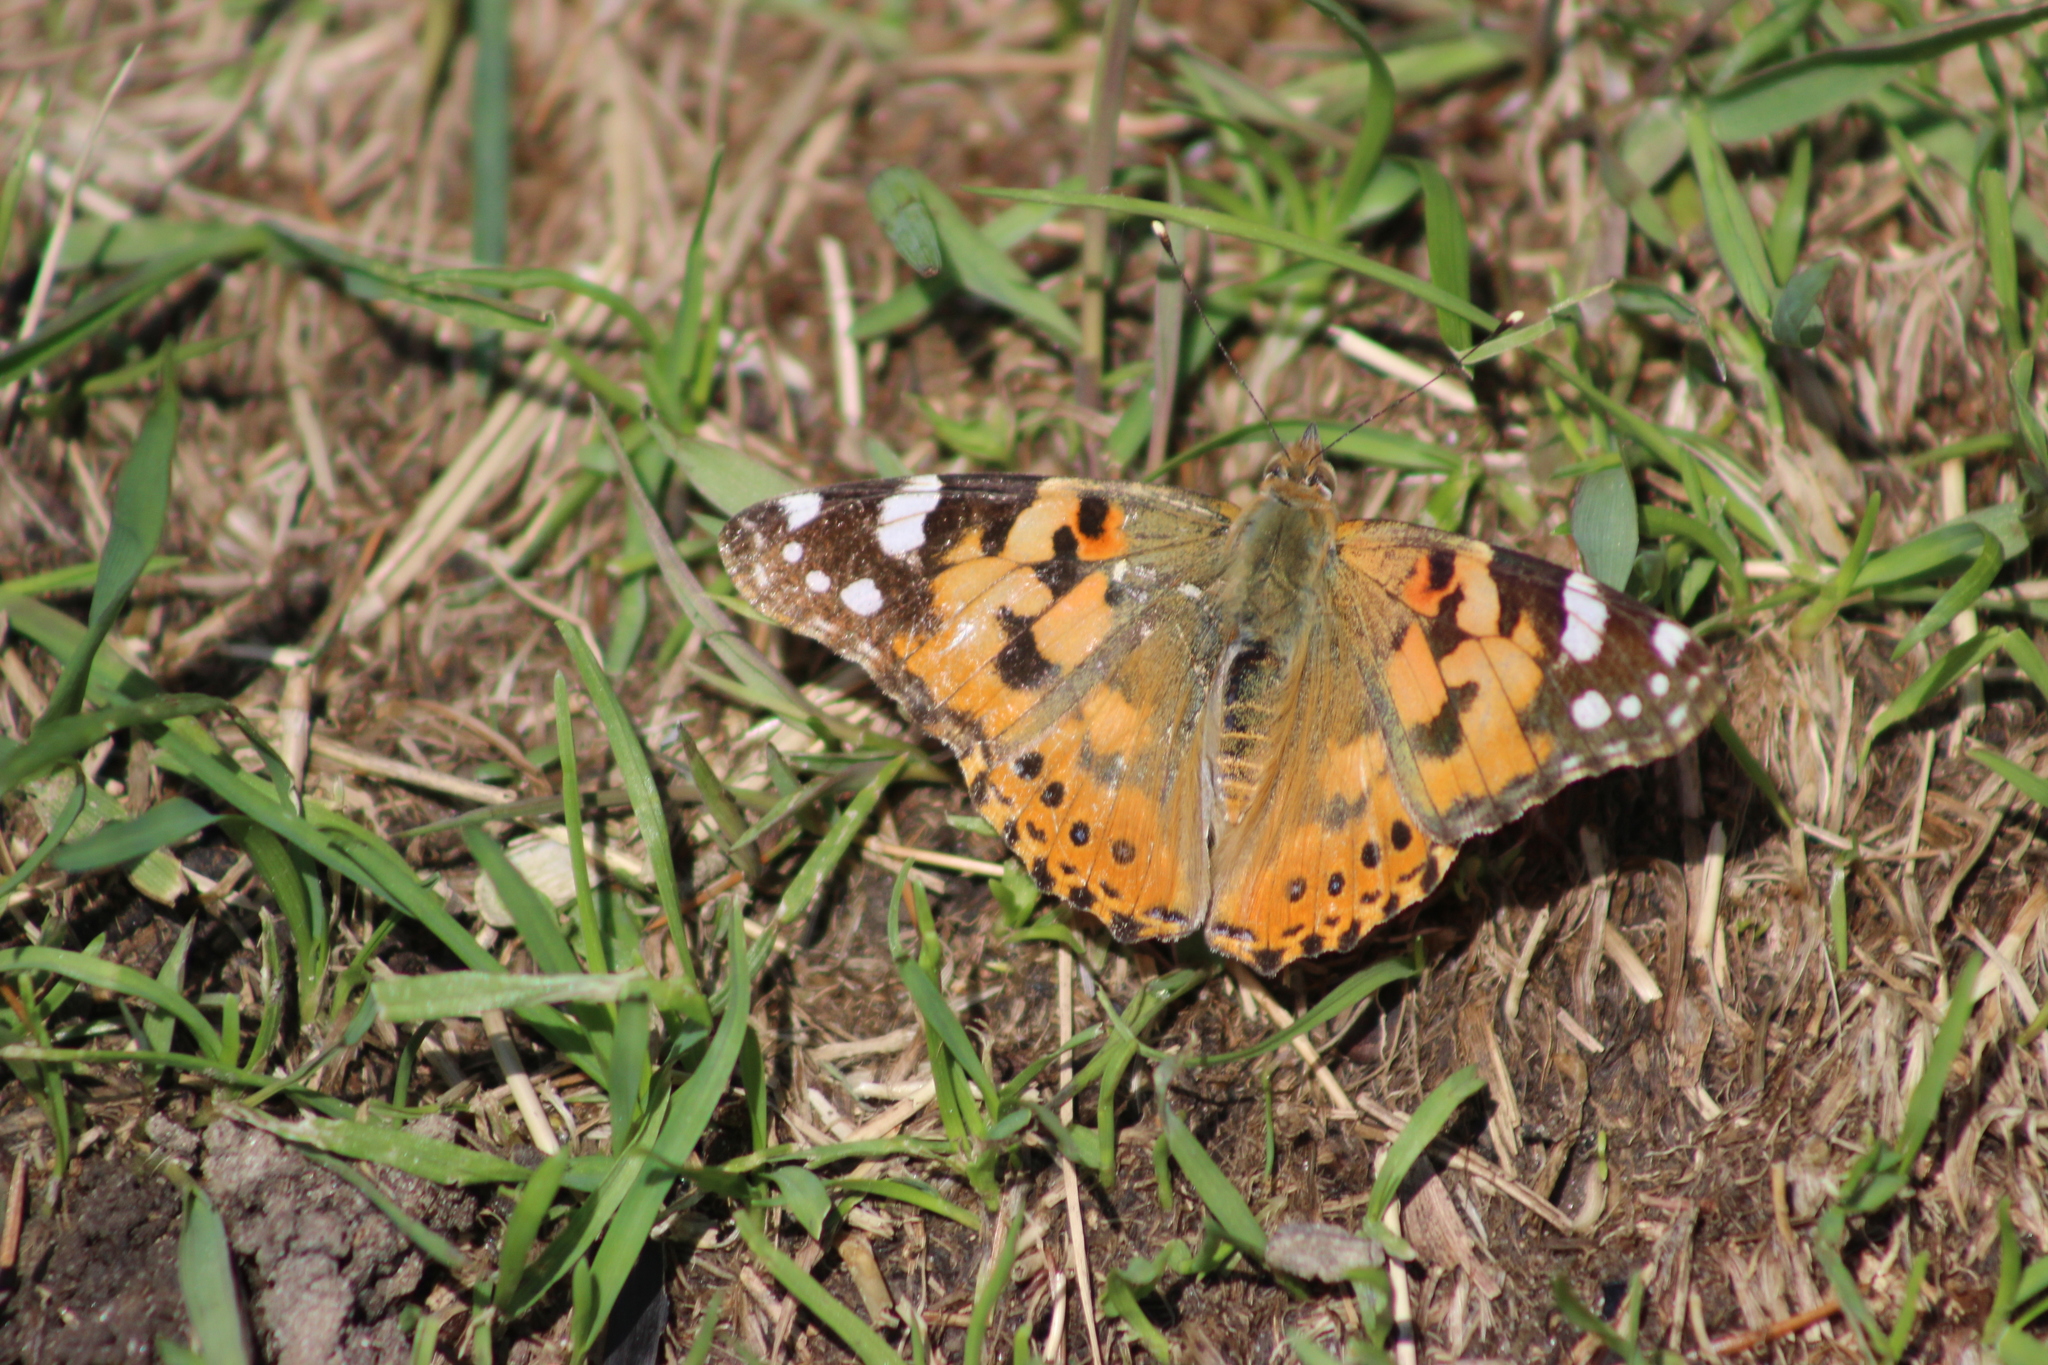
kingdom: Animalia
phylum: Arthropoda
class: Insecta
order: Lepidoptera
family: Nymphalidae
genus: Vanessa
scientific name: Vanessa cardui
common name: Painted lady
